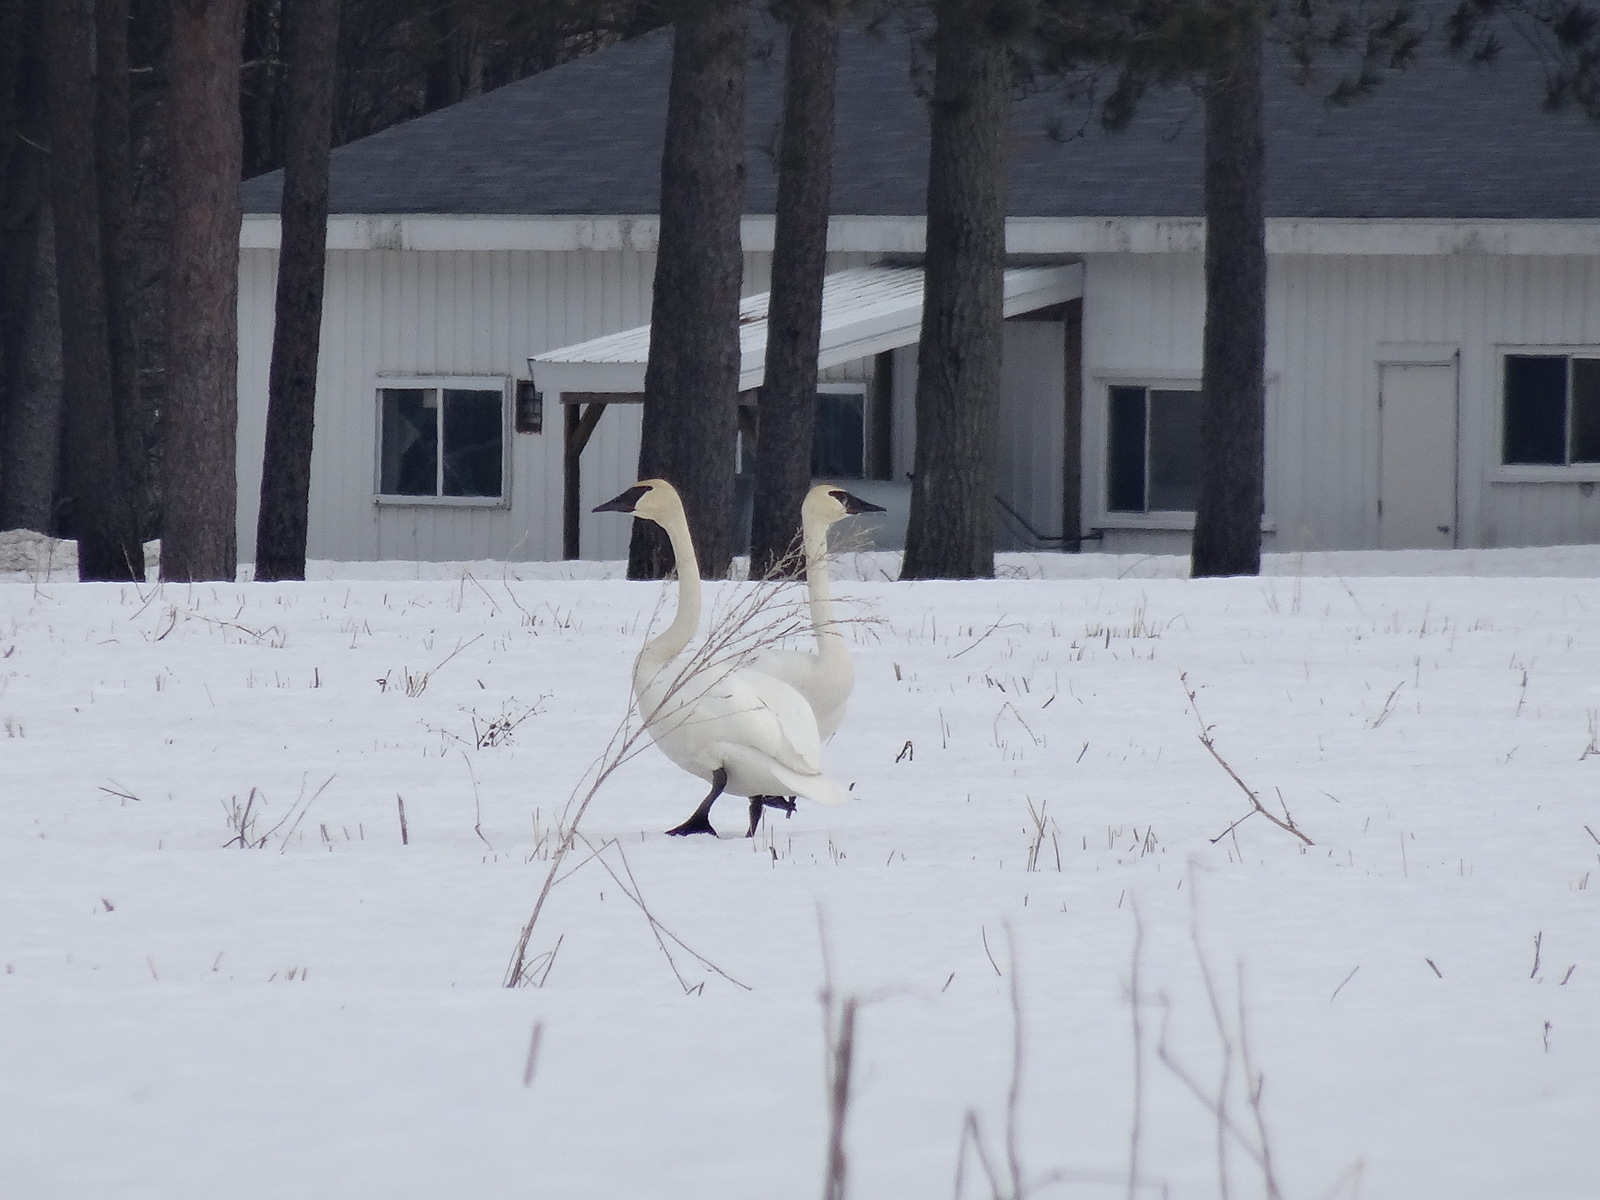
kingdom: Animalia
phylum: Chordata
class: Aves
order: Anseriformes
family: Anatidae
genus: Cygnus
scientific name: Cygnus buccinator
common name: Trumpeter swan
